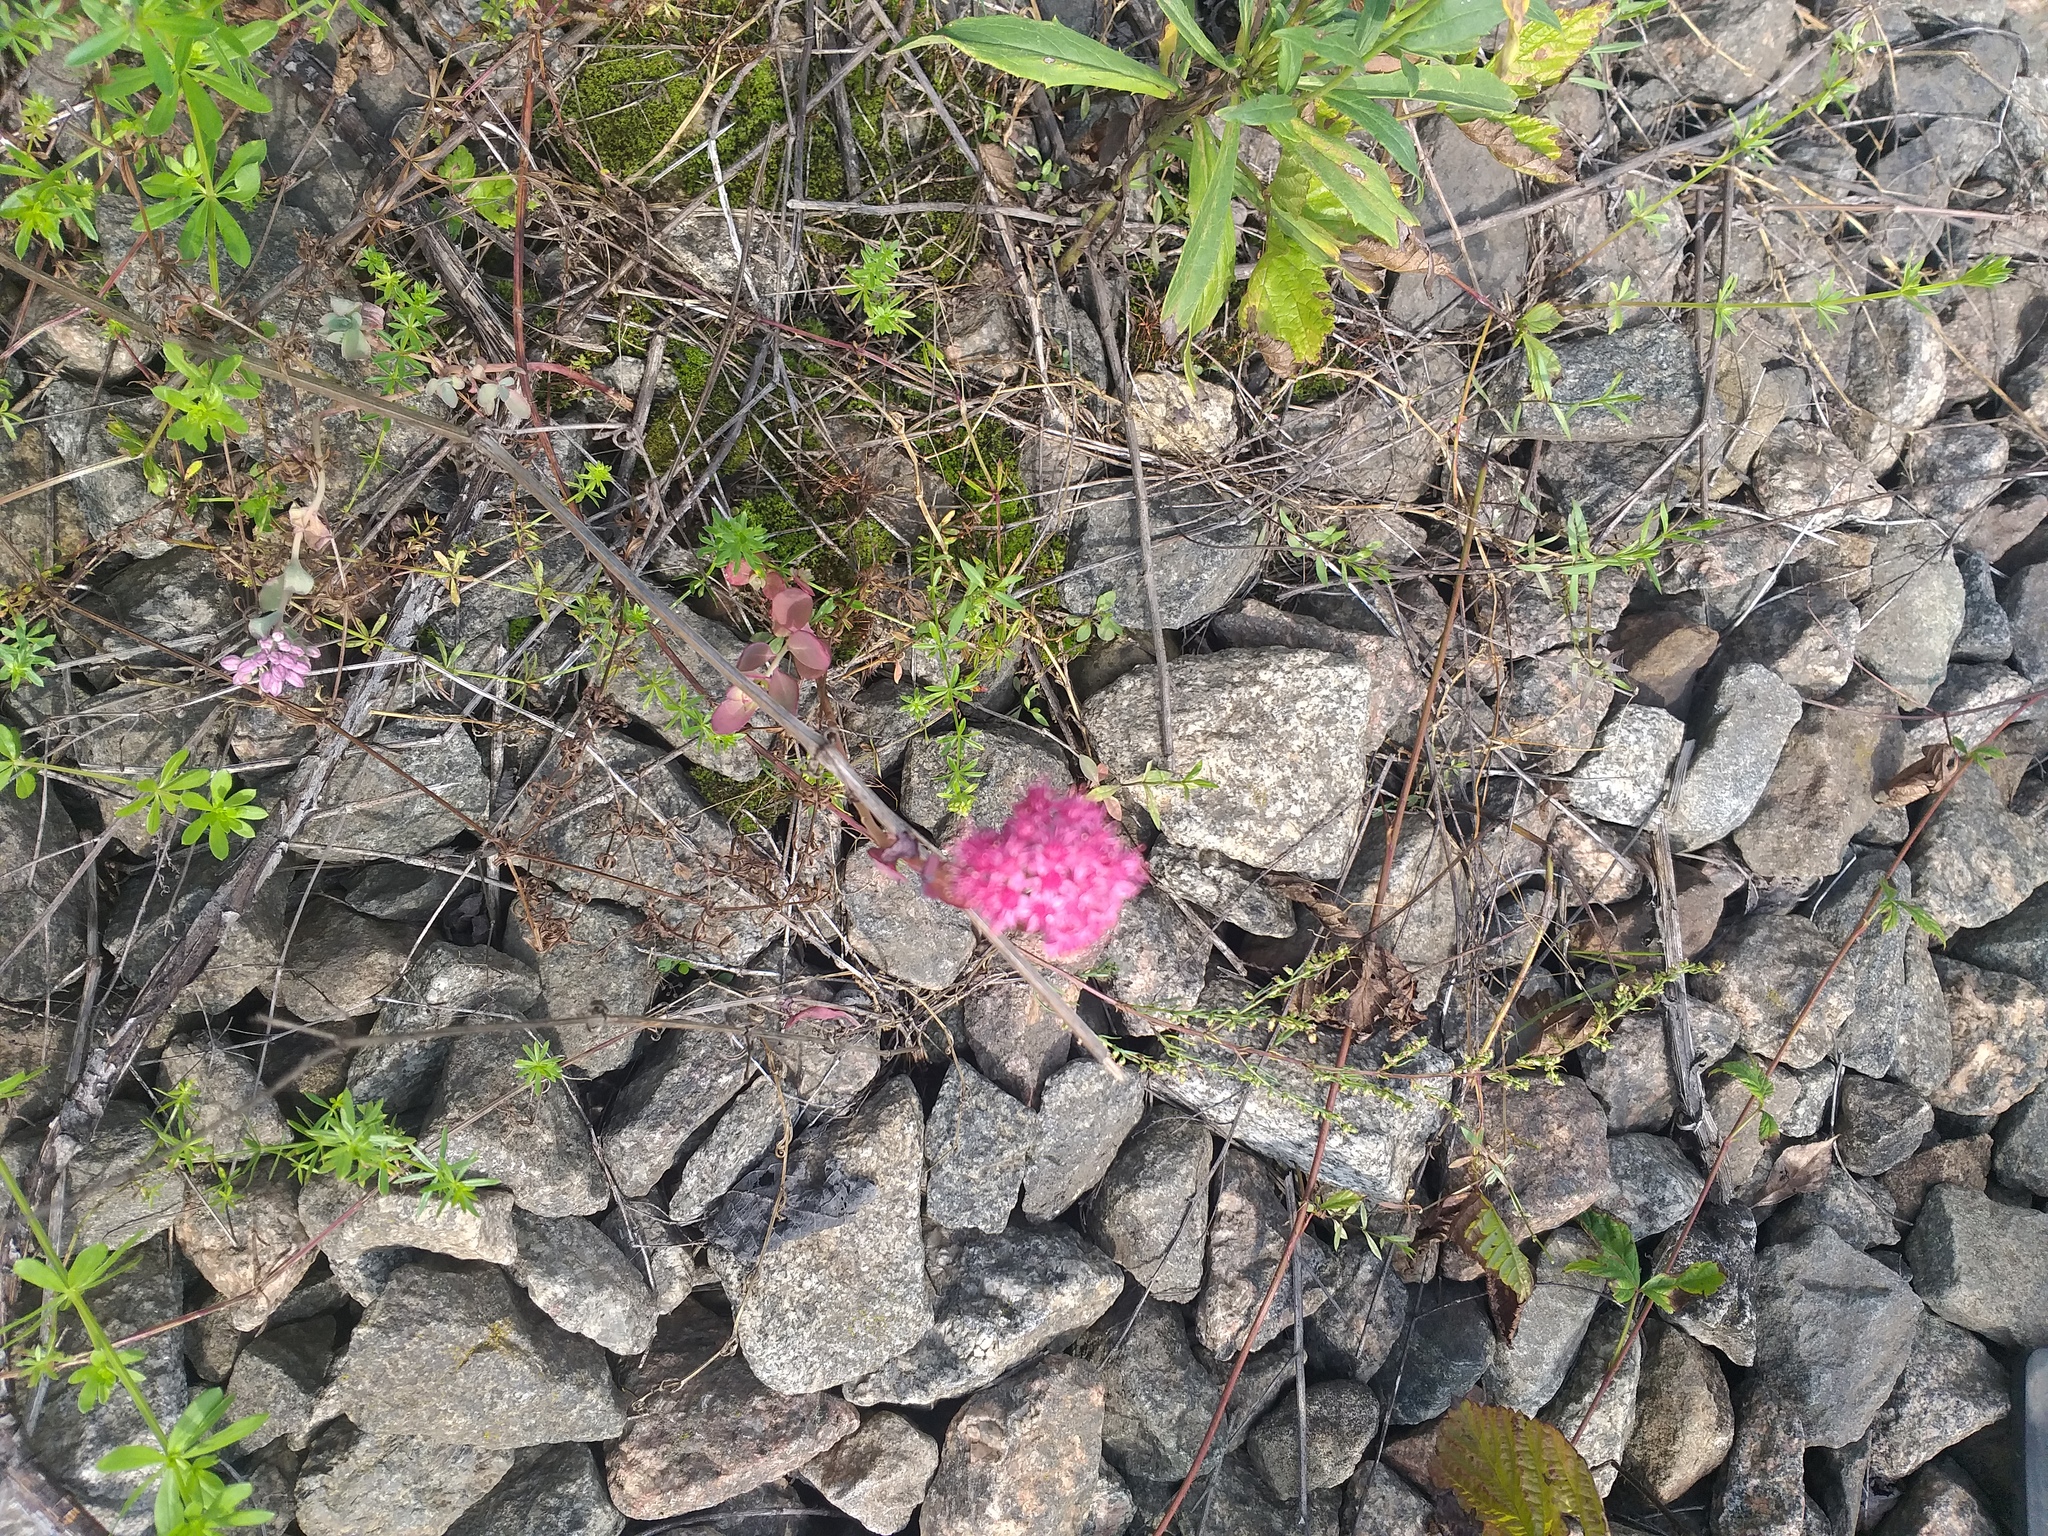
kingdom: Plantae
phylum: Tracheophyta
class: Magnoliopsida
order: Saxifragales
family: Crassulaceae
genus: Hylotelephium
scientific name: Hylotelephium telephium
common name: Live-forever
